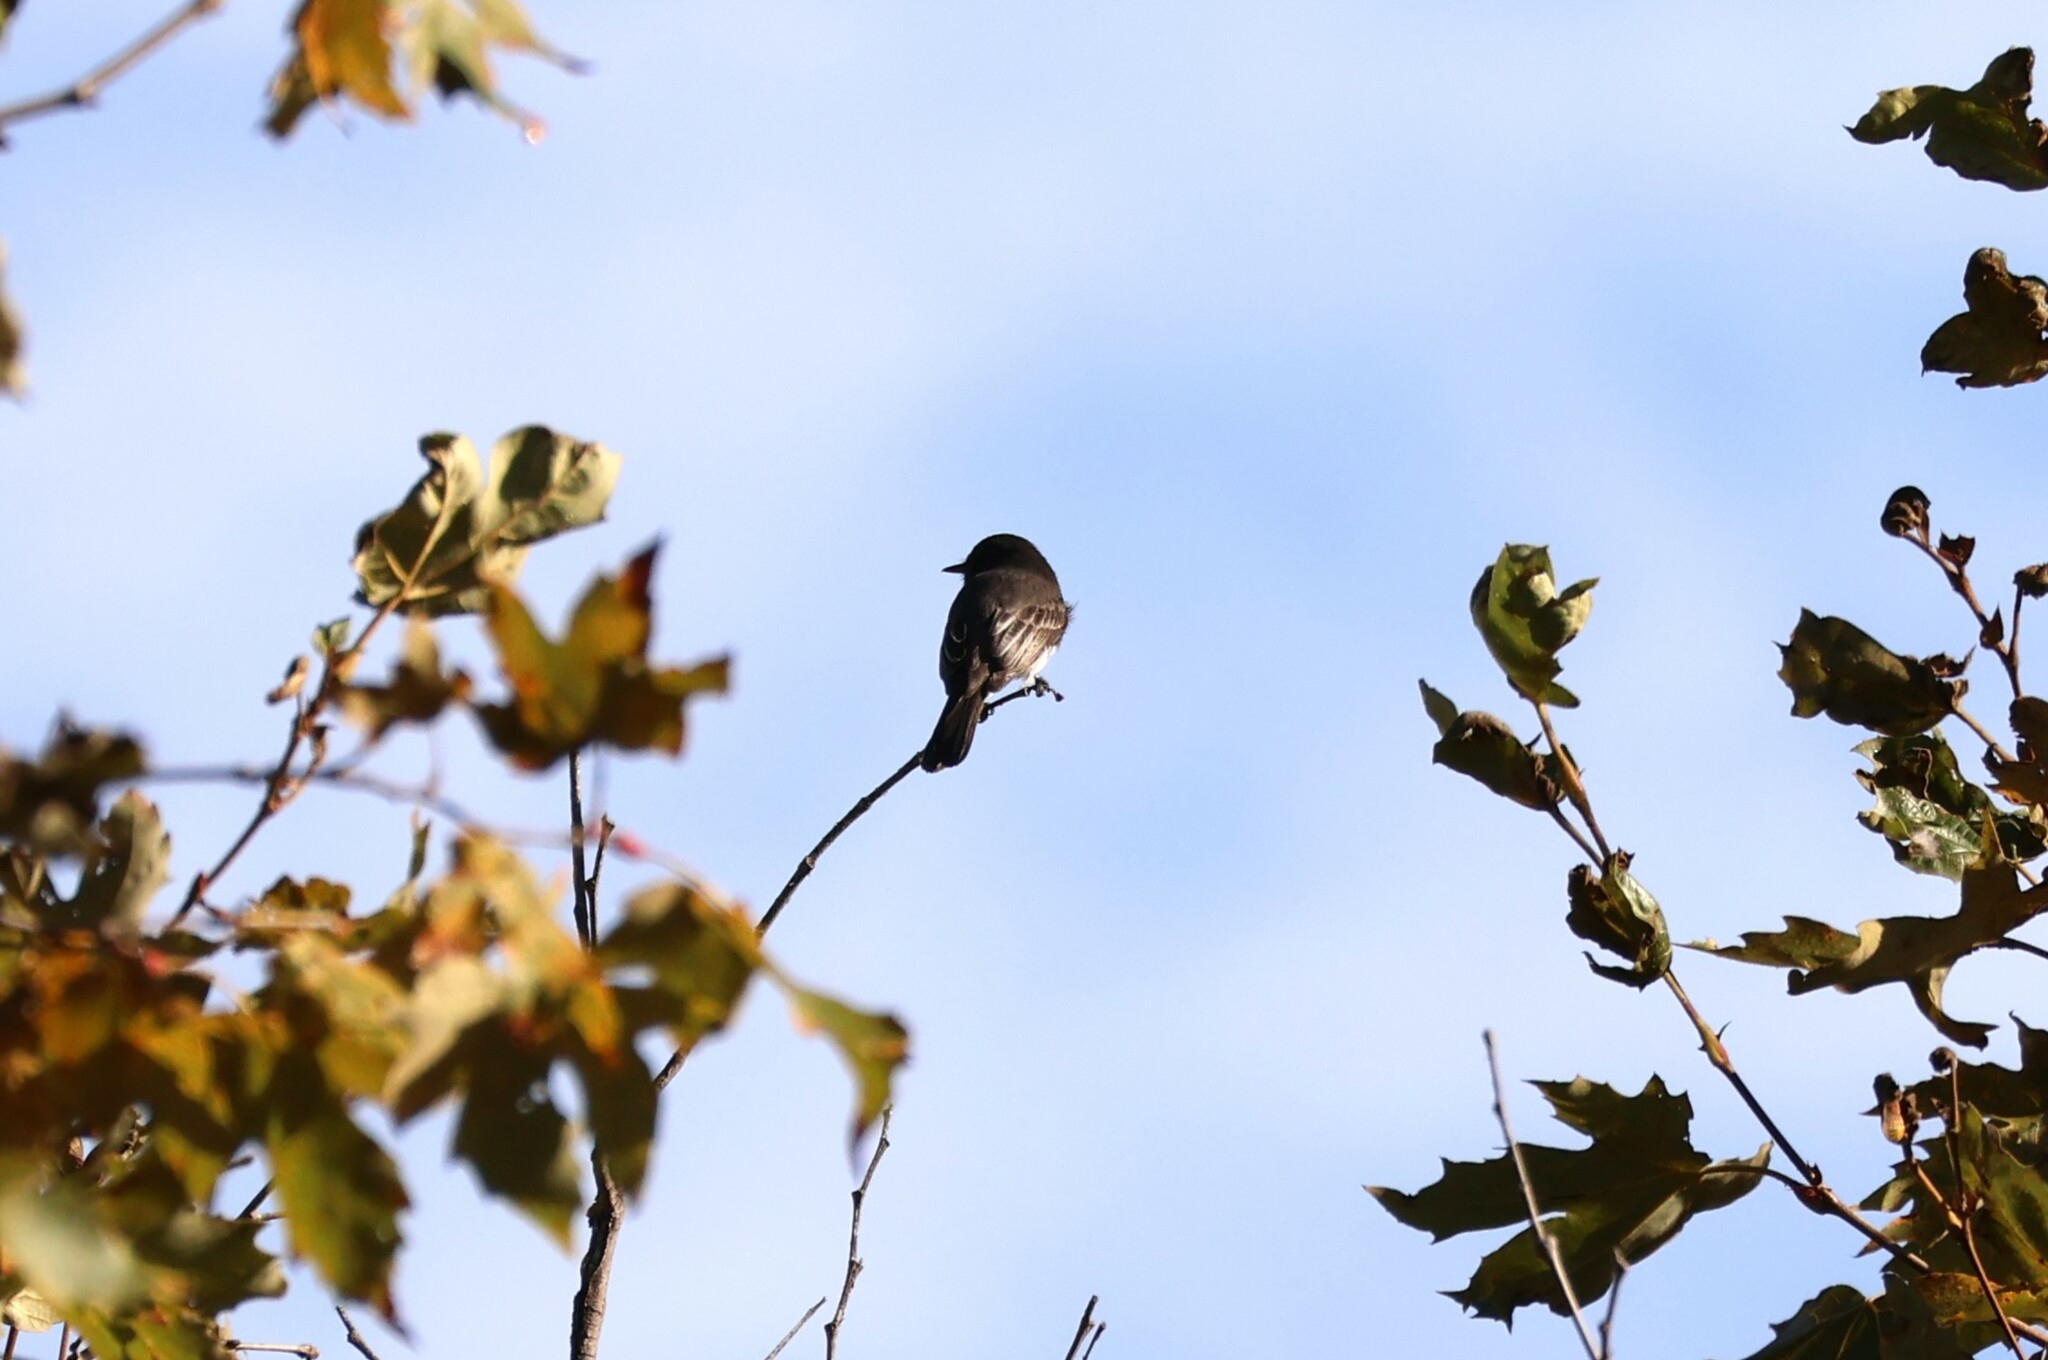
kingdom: Animalia
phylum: Chordata
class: Aves
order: Passeriformes
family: Tyrannidae
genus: Sayornis
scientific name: Sayornis nigricans
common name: Black phoebe
